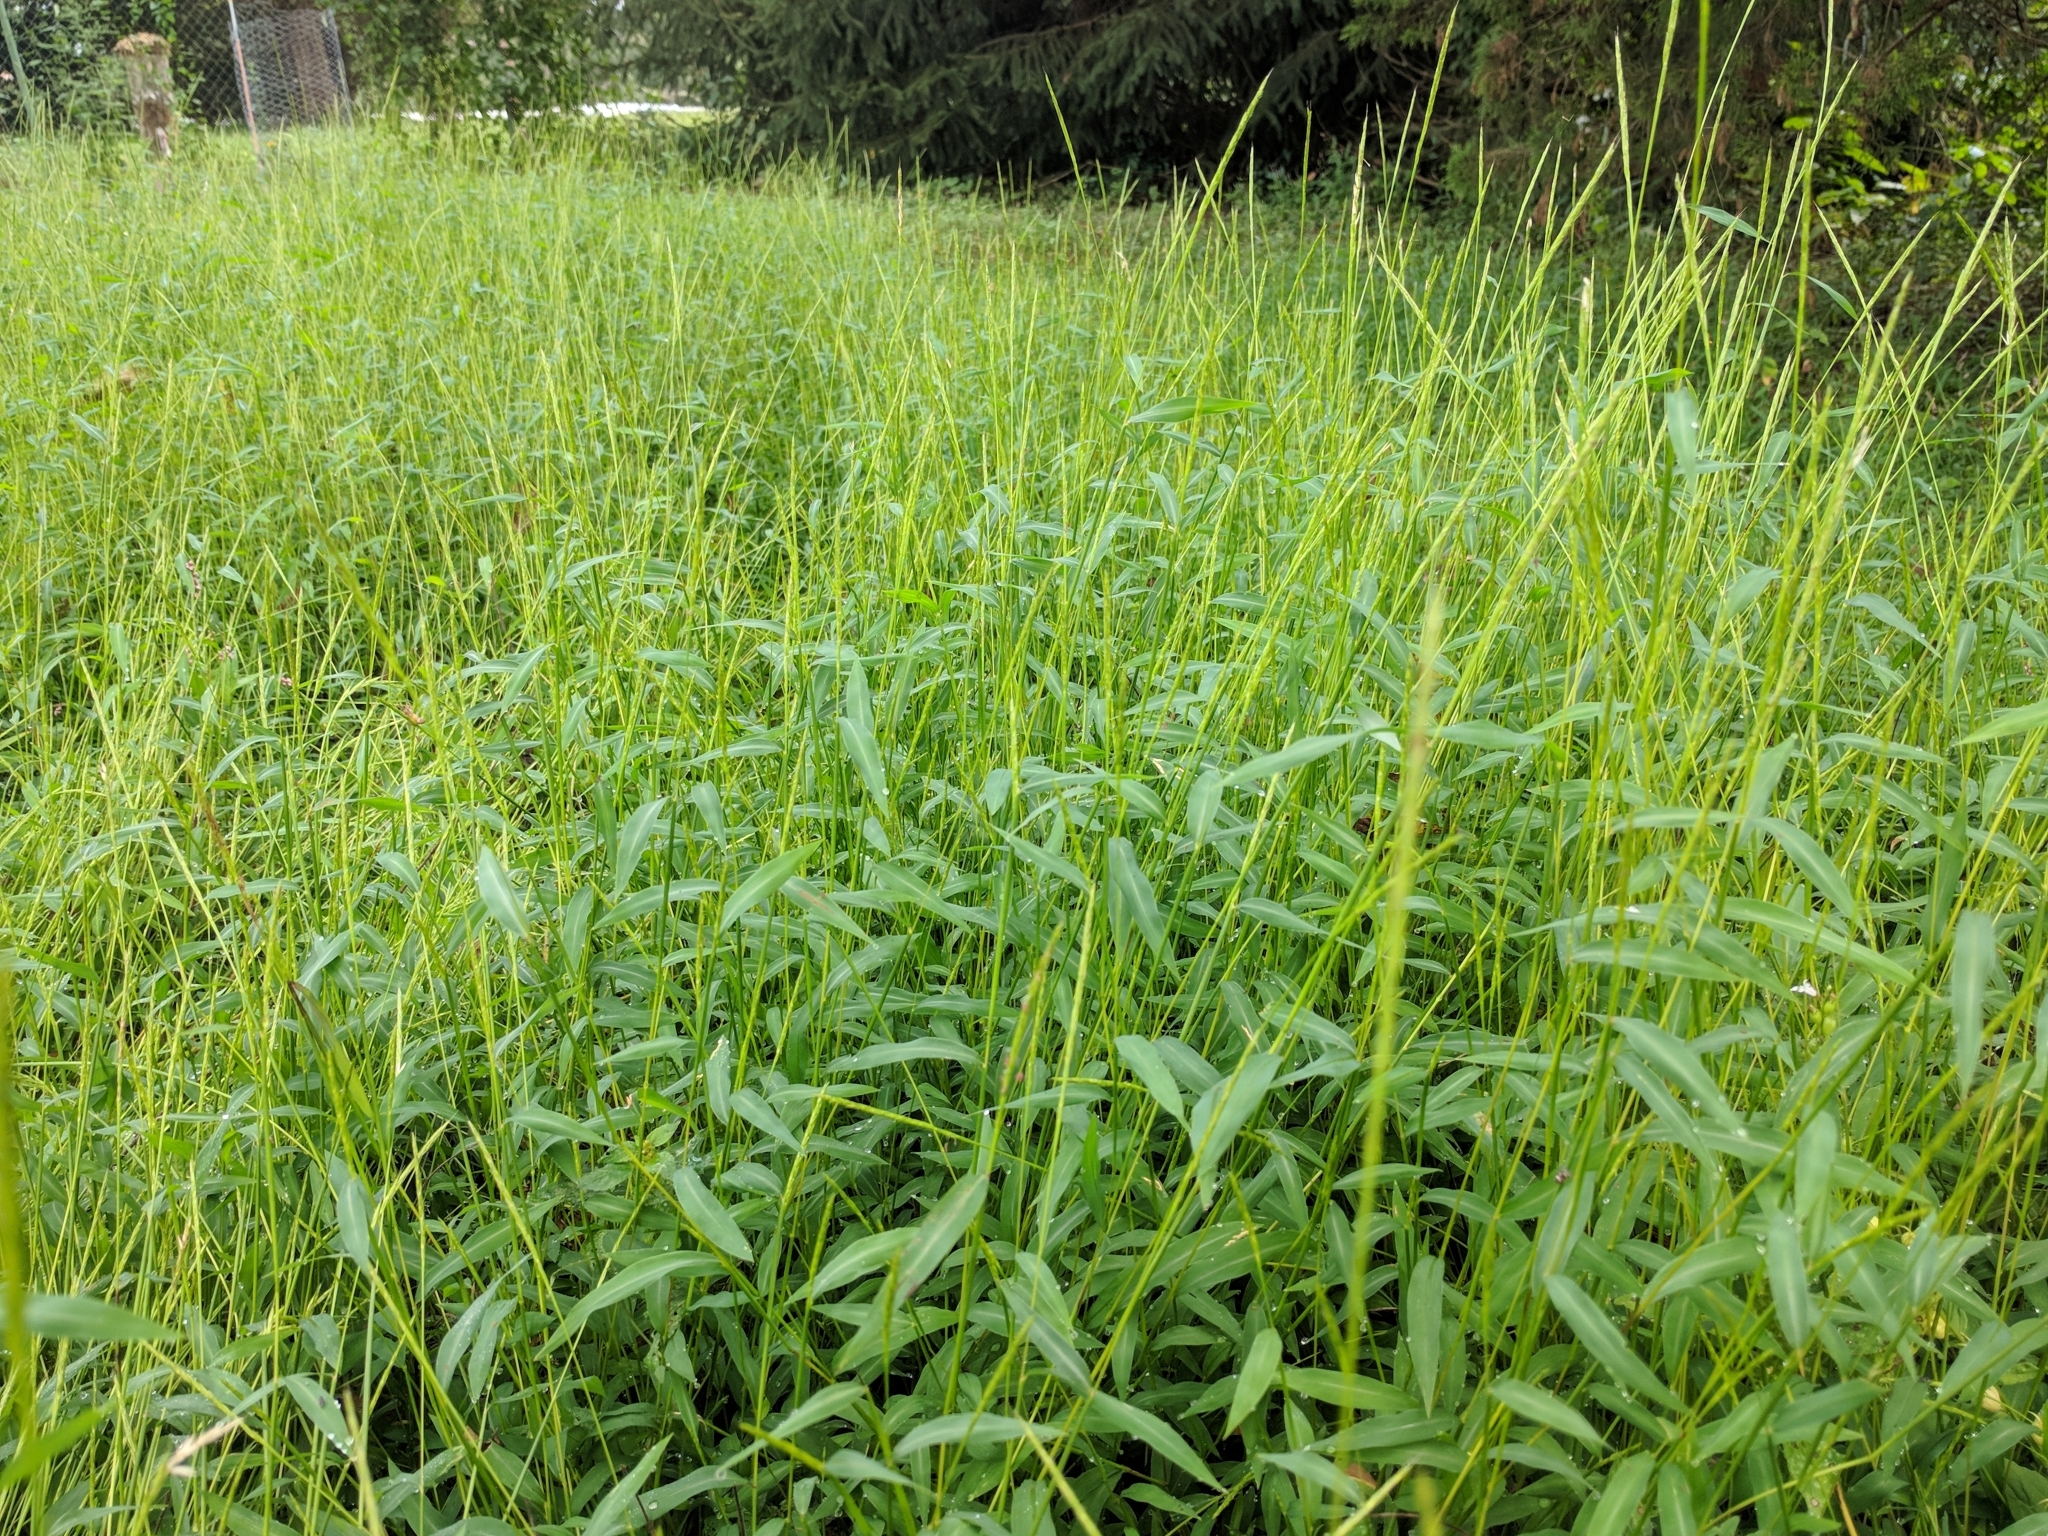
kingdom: Plantae
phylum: Tracheophyta
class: Liliopsida
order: Poales
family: Poaceae
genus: Microstegium
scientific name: Microstegium vimineum
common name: Japanese stiltgrass
